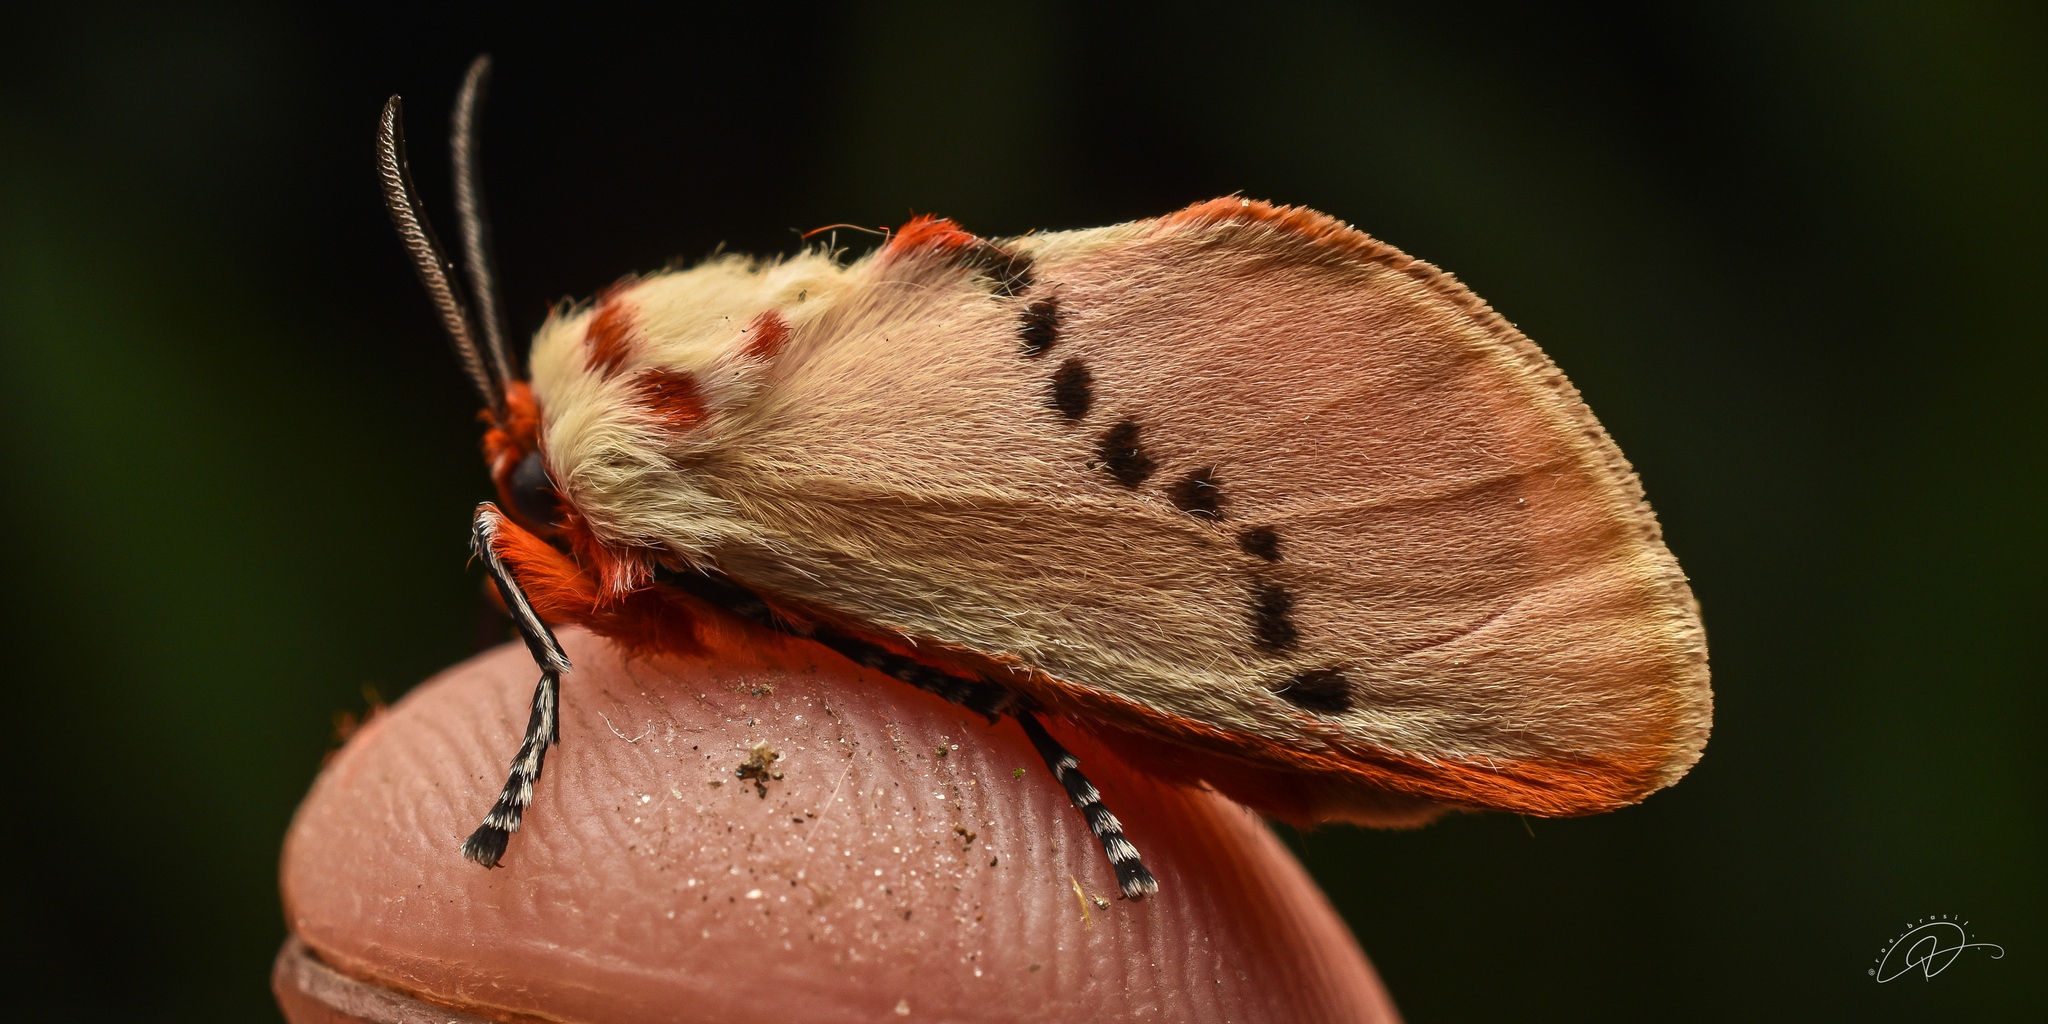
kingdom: Animalia
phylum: Arthropoda
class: Insecta
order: Lepidoptera
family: Megalopygidae
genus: Trosia
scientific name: Trosia misda
